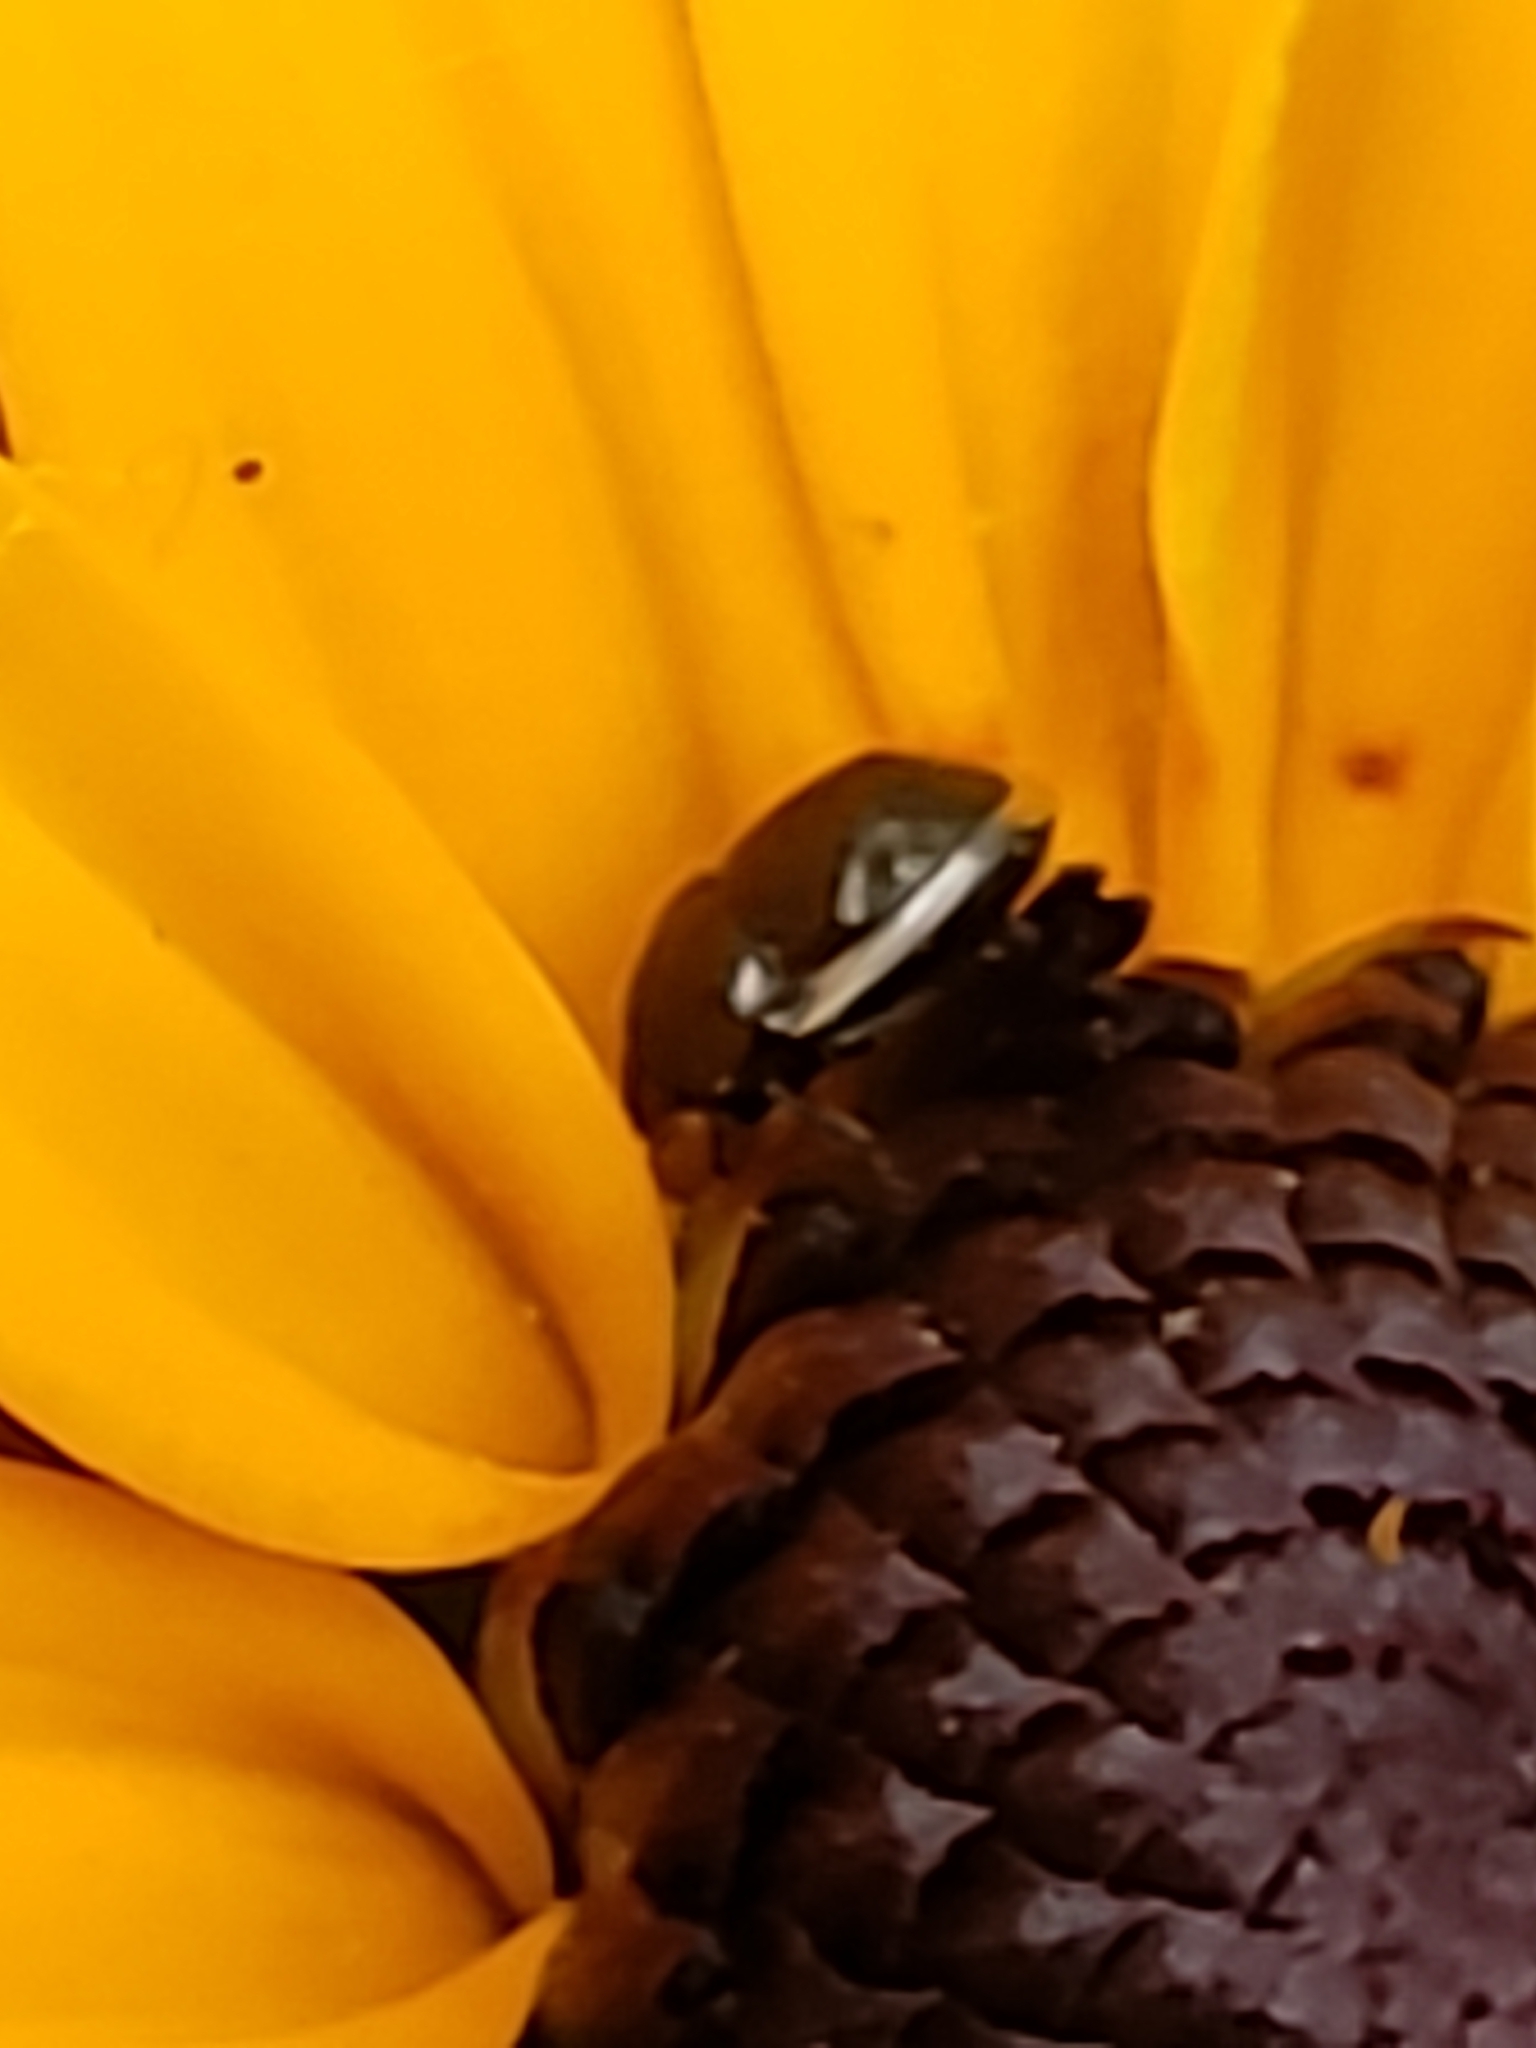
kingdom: Animalia
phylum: Arthropoda
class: Insecta
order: Hemiptera
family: Thyreocoridae
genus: Corimelaena
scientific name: Corimelaena lateralis
